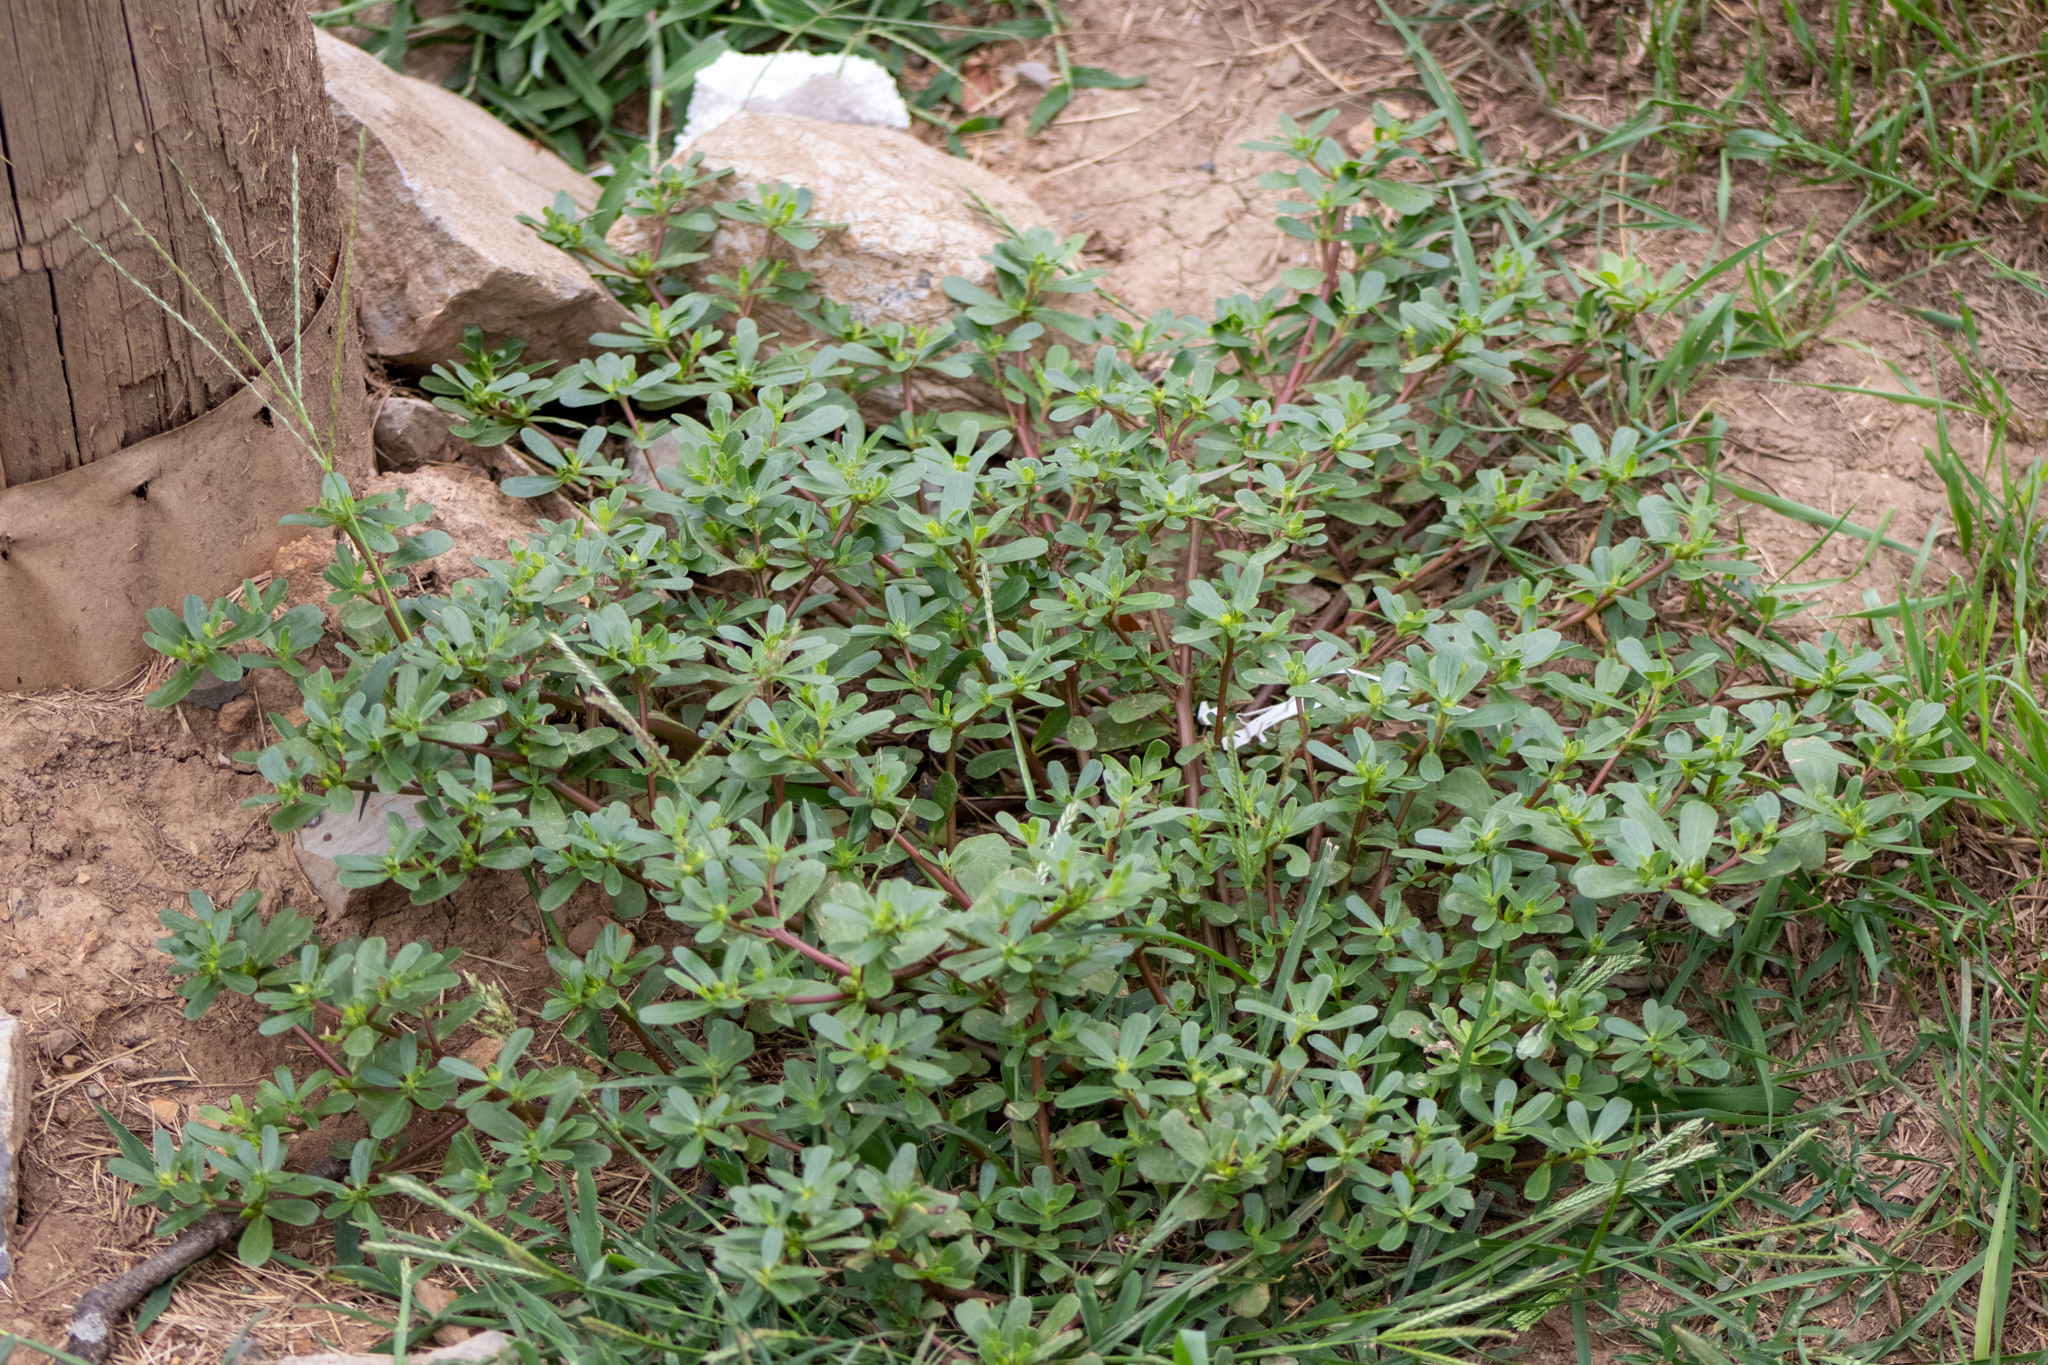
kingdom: Plantae
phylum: Tracheophyta
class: Magnoliopsida
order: Caryophyllales
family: Portulacaceae
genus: Portulaca
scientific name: Portulaca oleracea
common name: Common purslane
